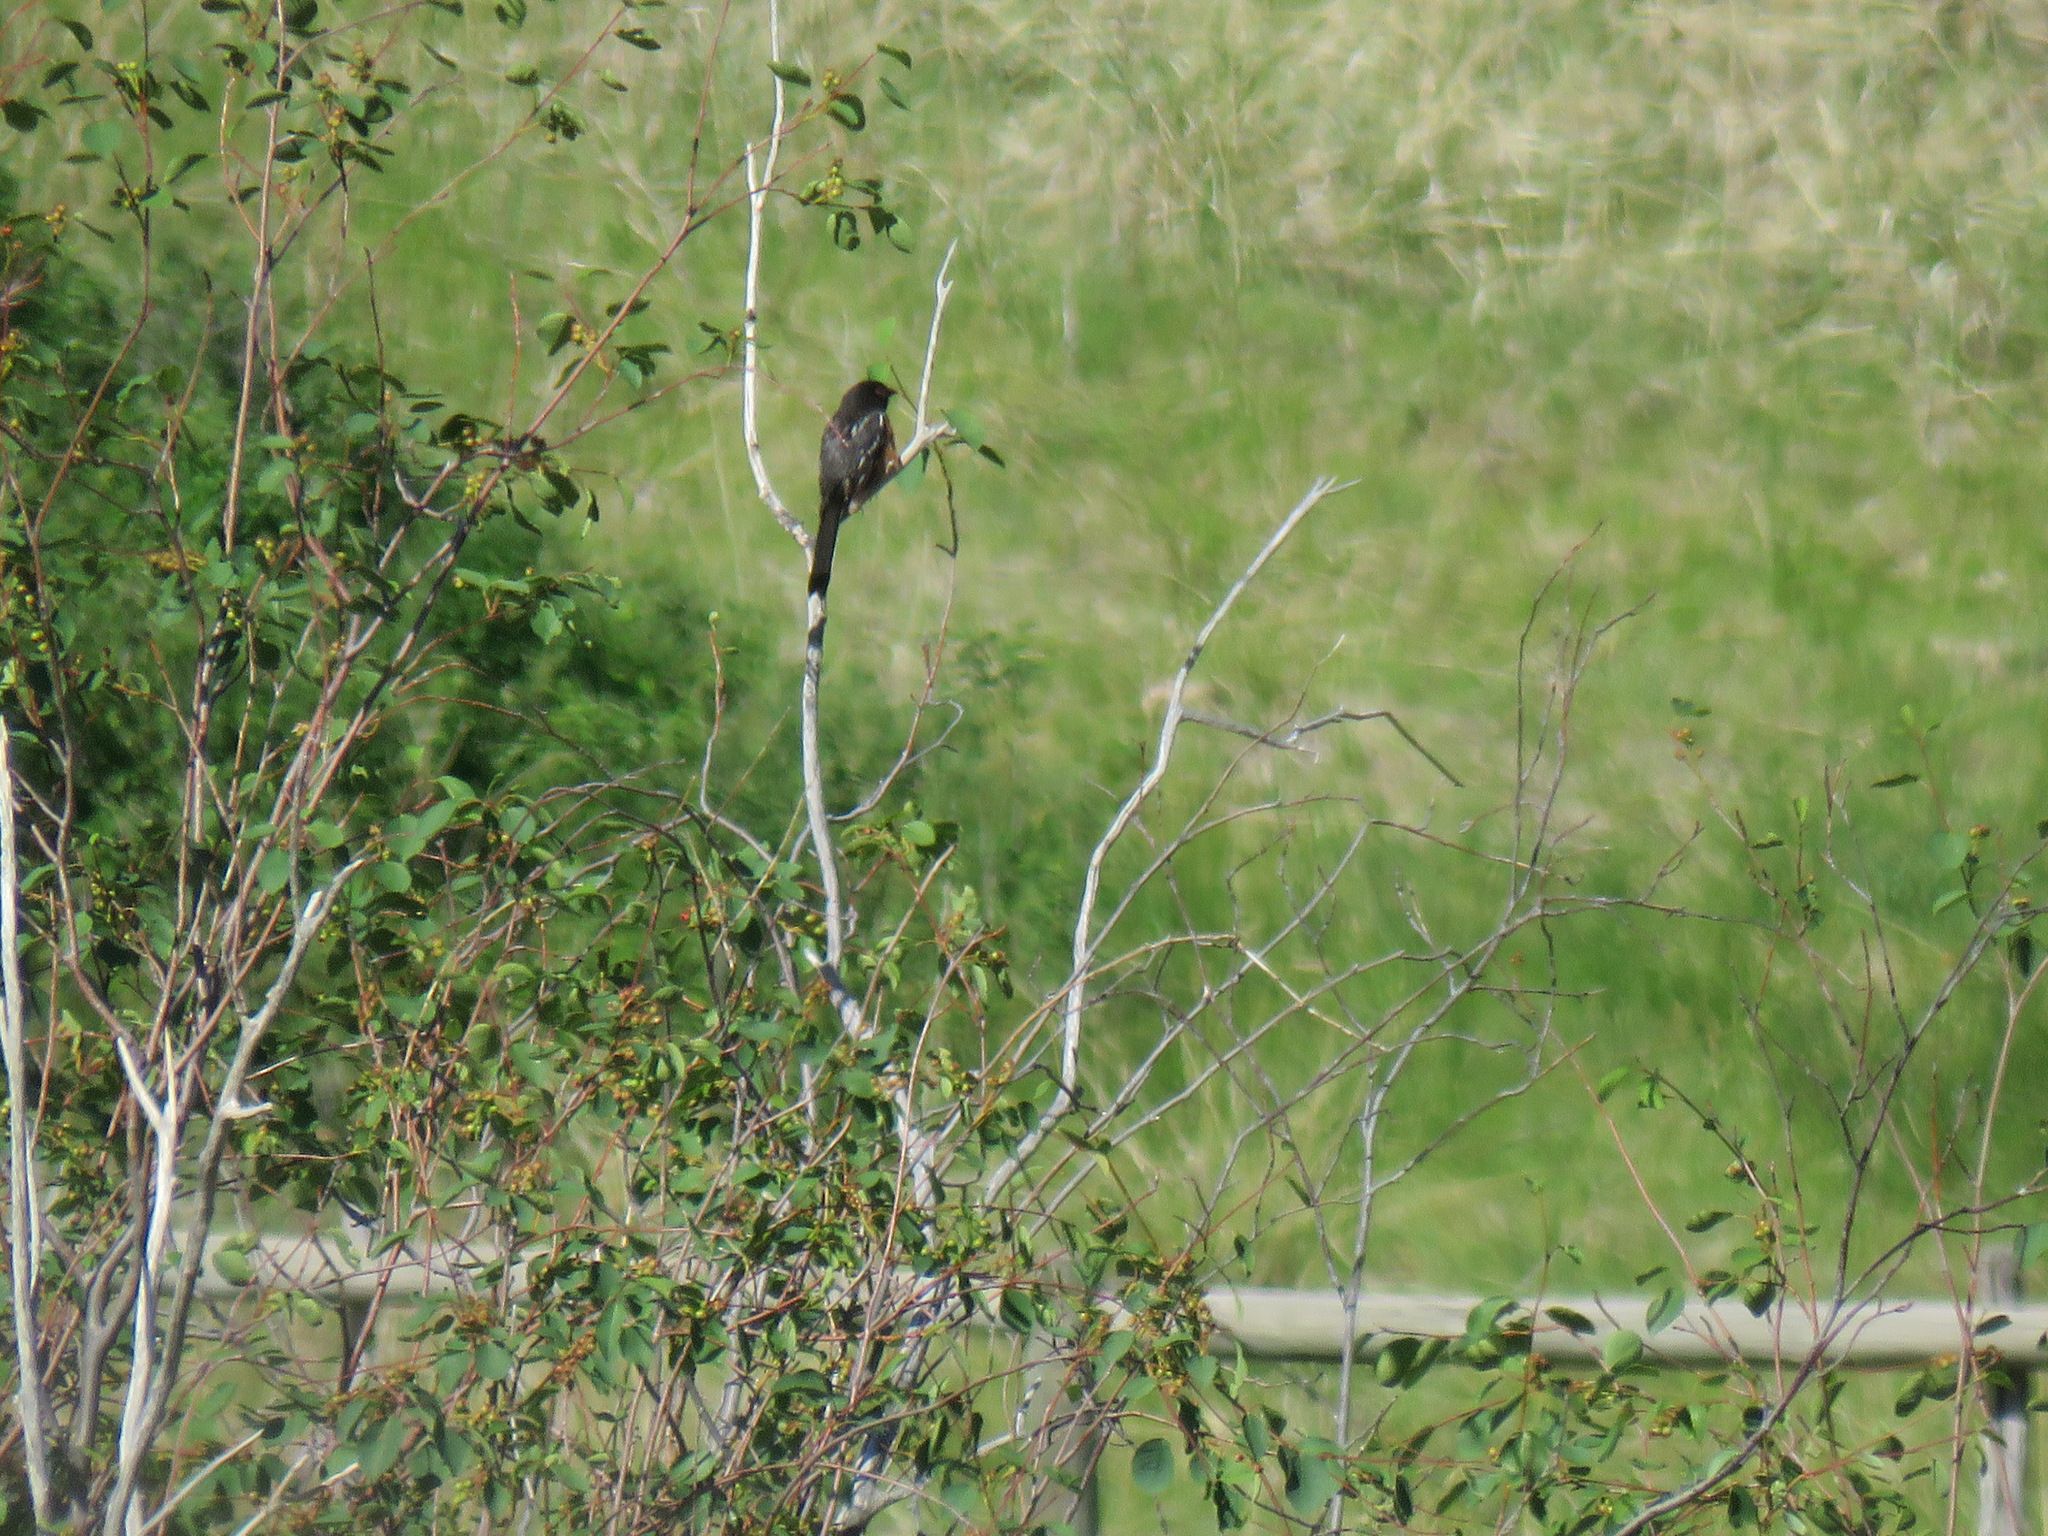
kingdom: Animalia
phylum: Chordata
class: Aves
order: Passeriformes
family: Passerellidae
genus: Pipilo
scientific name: Pipilo maculatus
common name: Spotted towhee
